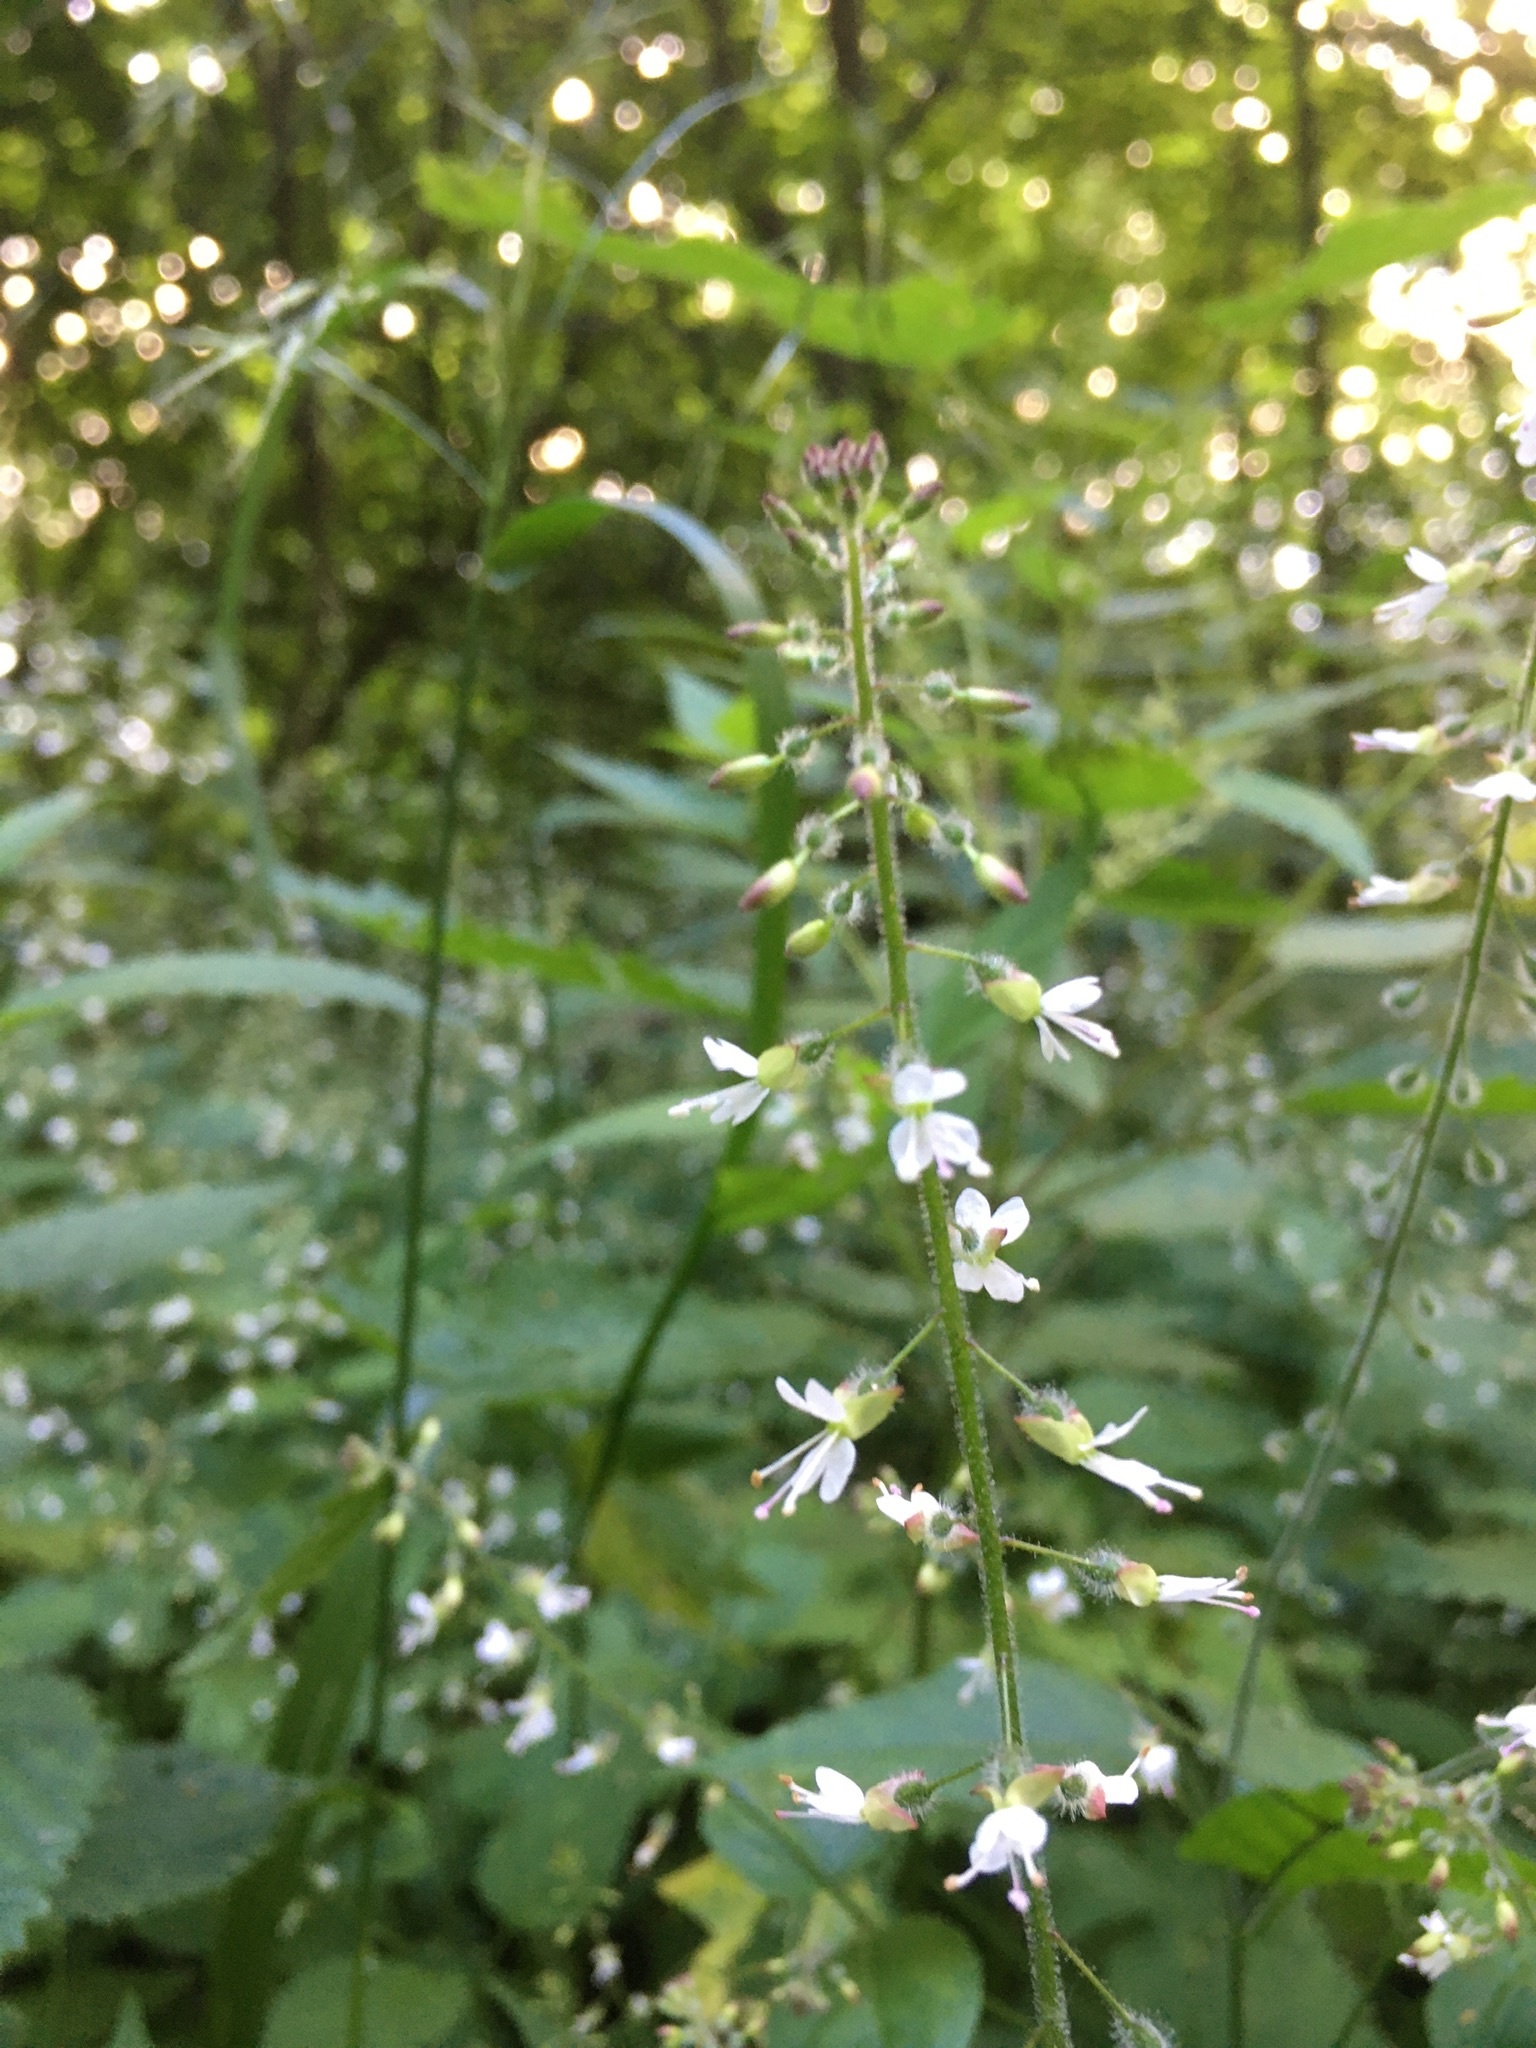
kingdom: Plantae
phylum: Tracheophyta
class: Magnoliopsida
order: Myrtales
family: Onagraceae
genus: Circaea
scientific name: Circaea lutetiana
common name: Enchanter's-nightshade
